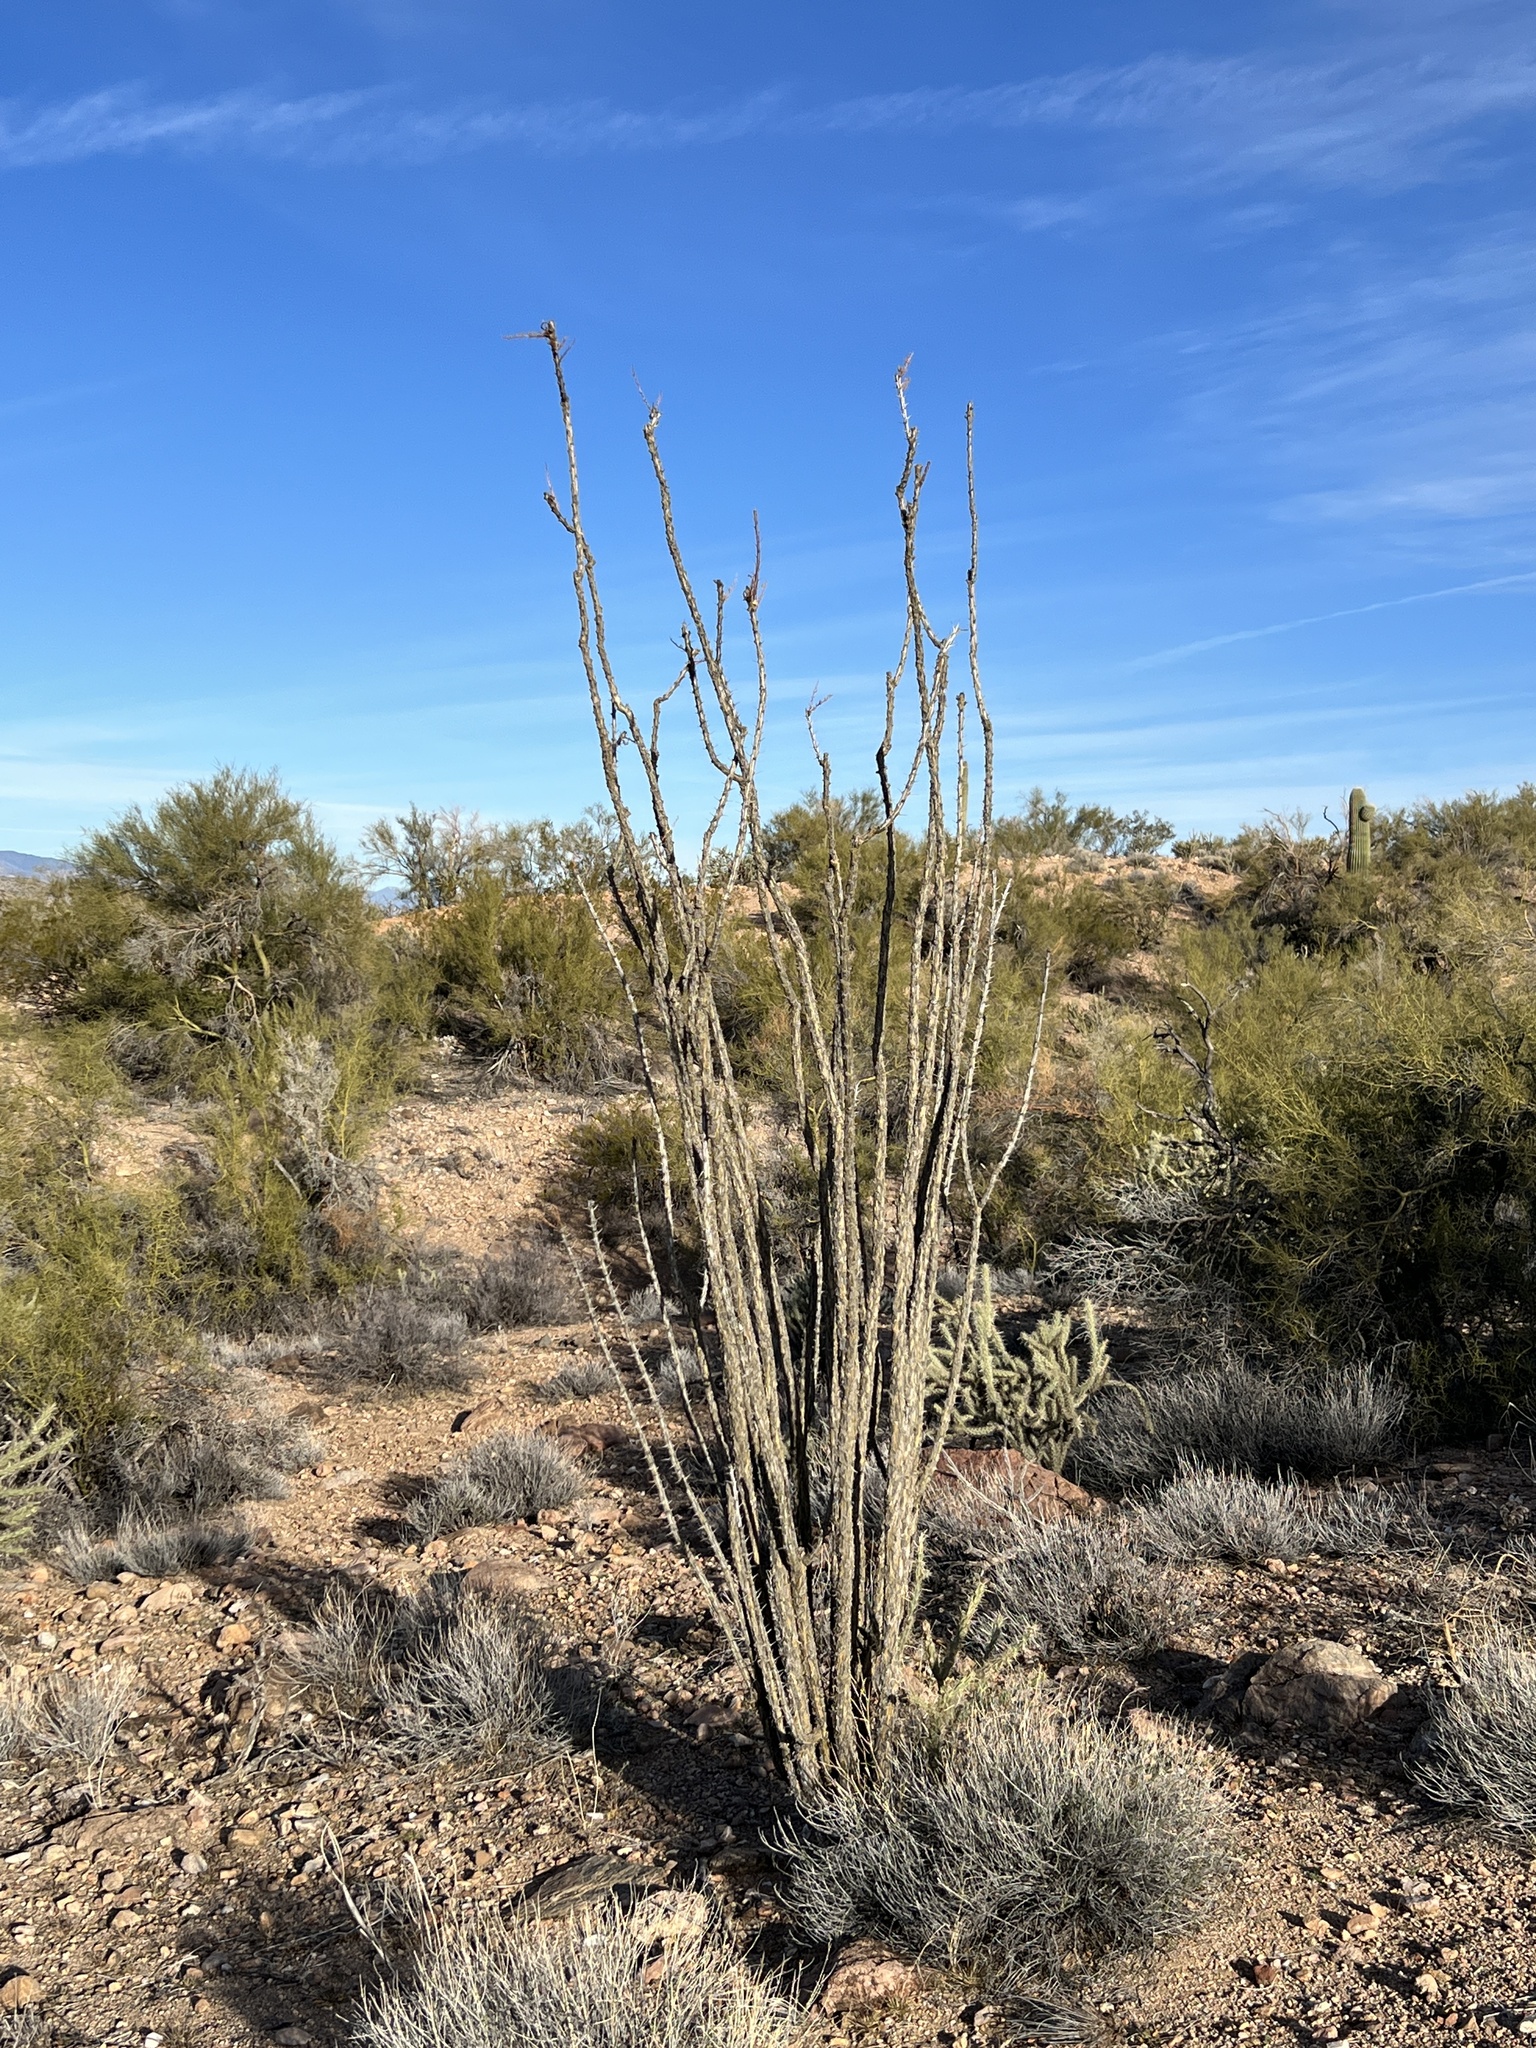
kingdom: Plantae
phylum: Tracheophyta
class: Magnoliopsida
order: Ericales
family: Fouquieriaceae
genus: Fouquieria
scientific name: Fouquieria splendens
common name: Vine-cactus
